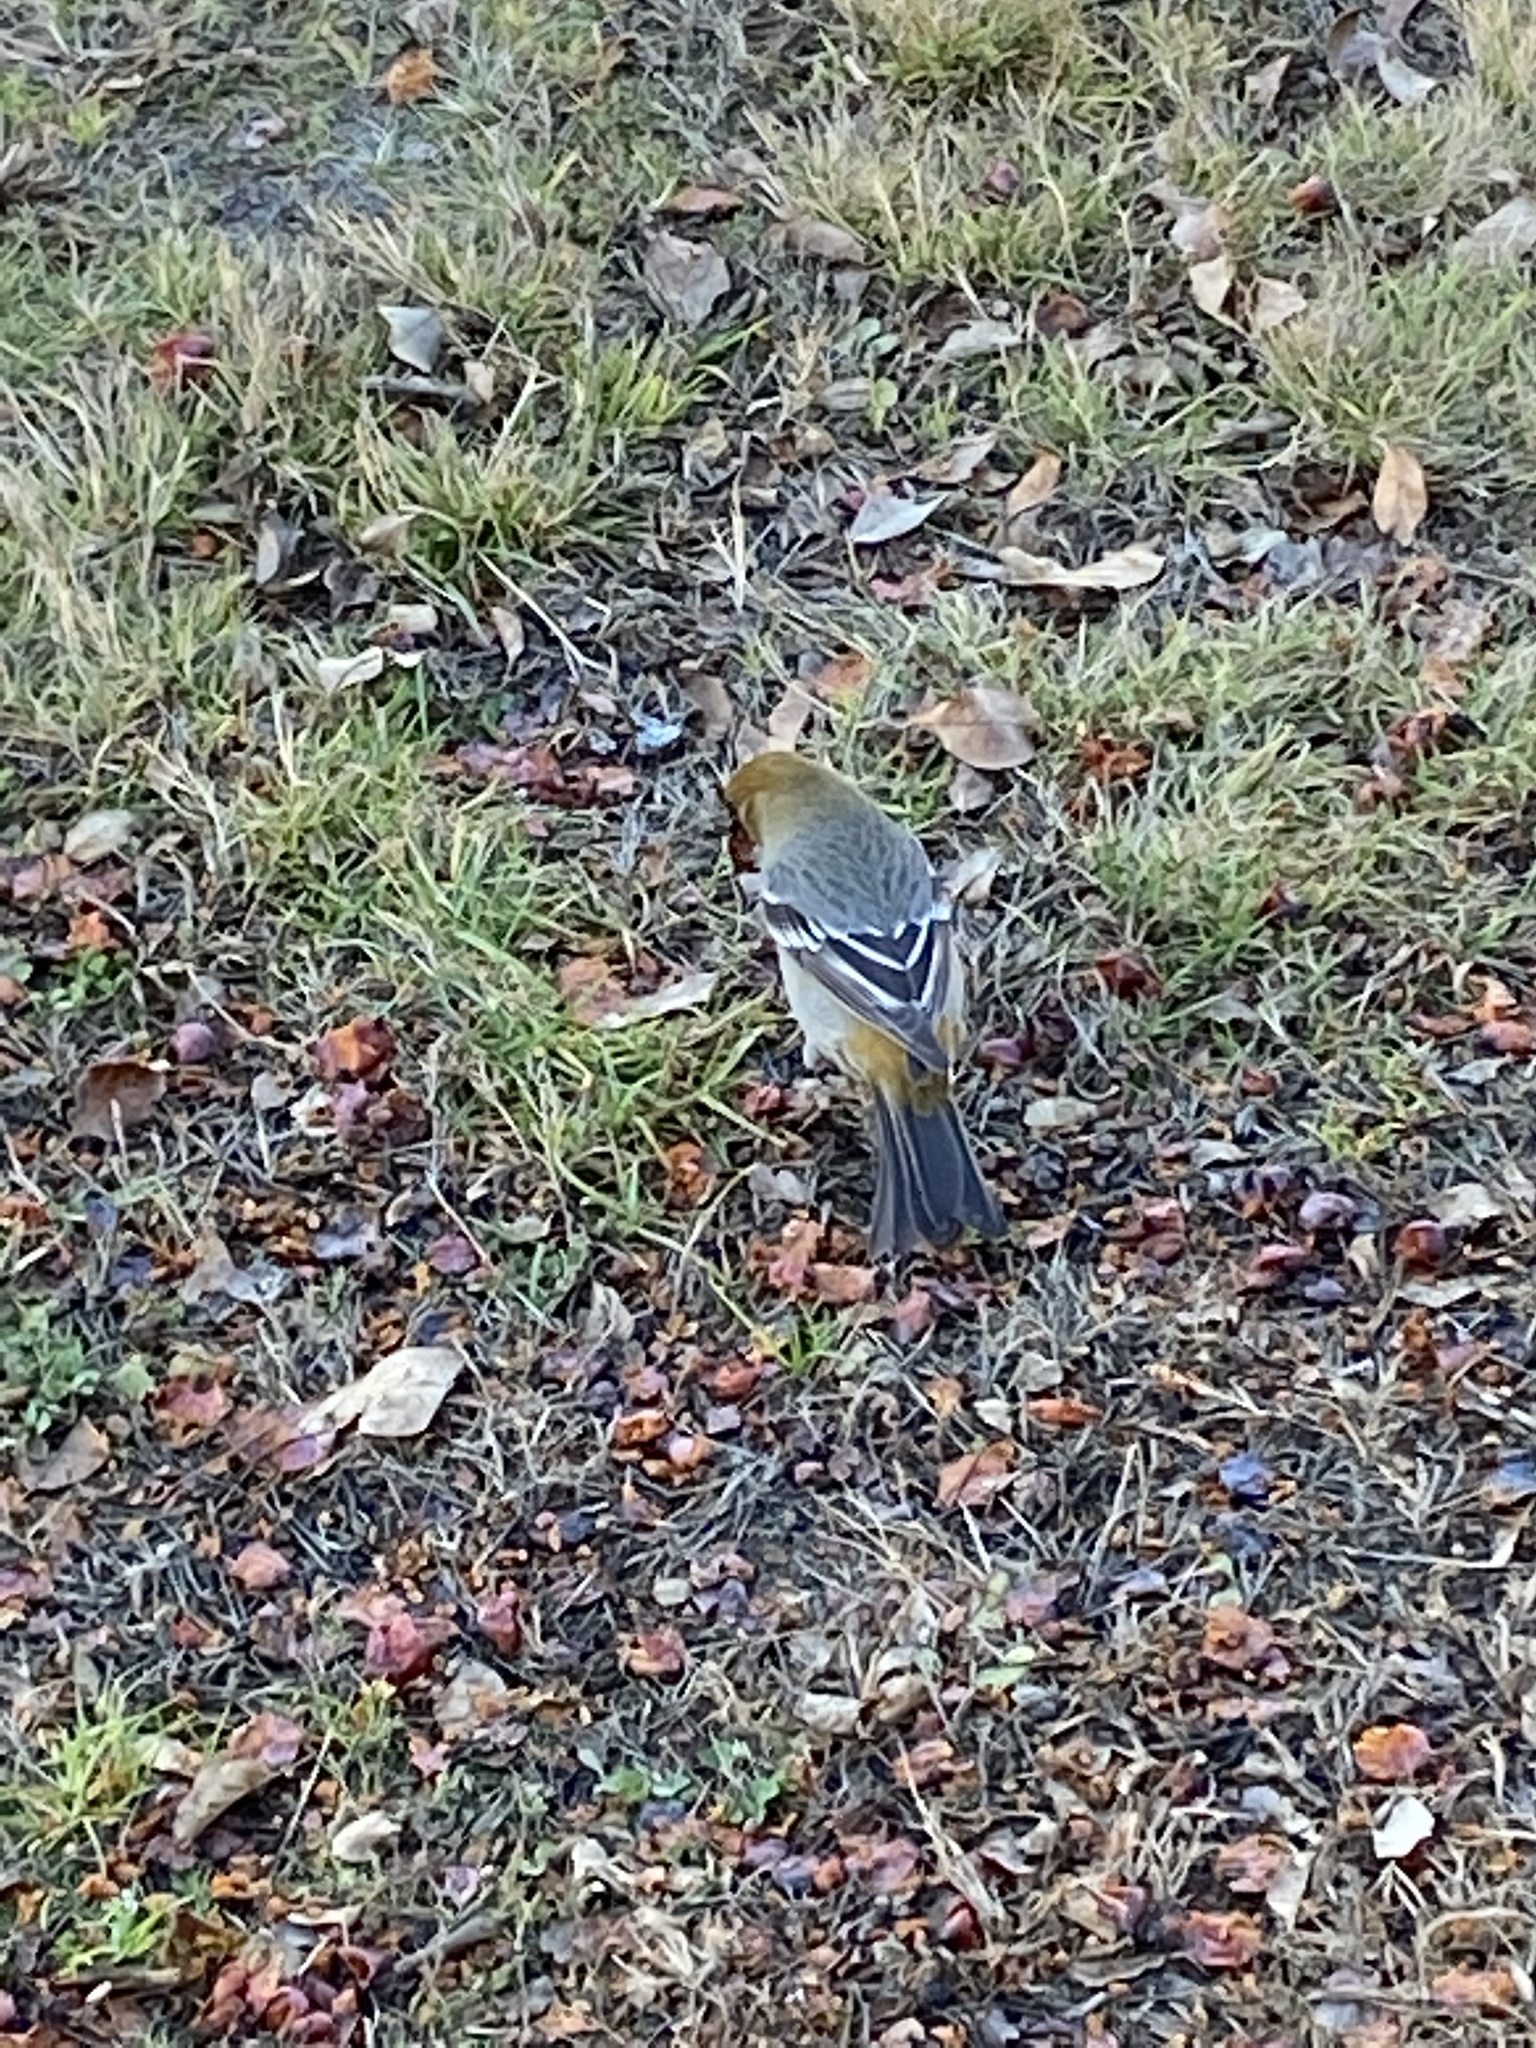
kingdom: Animalia
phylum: Chordata
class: Aves
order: Passeriformes
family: Fringillidae
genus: Pinicola
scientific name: Pinicola enucleator
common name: Pine grosbeak
